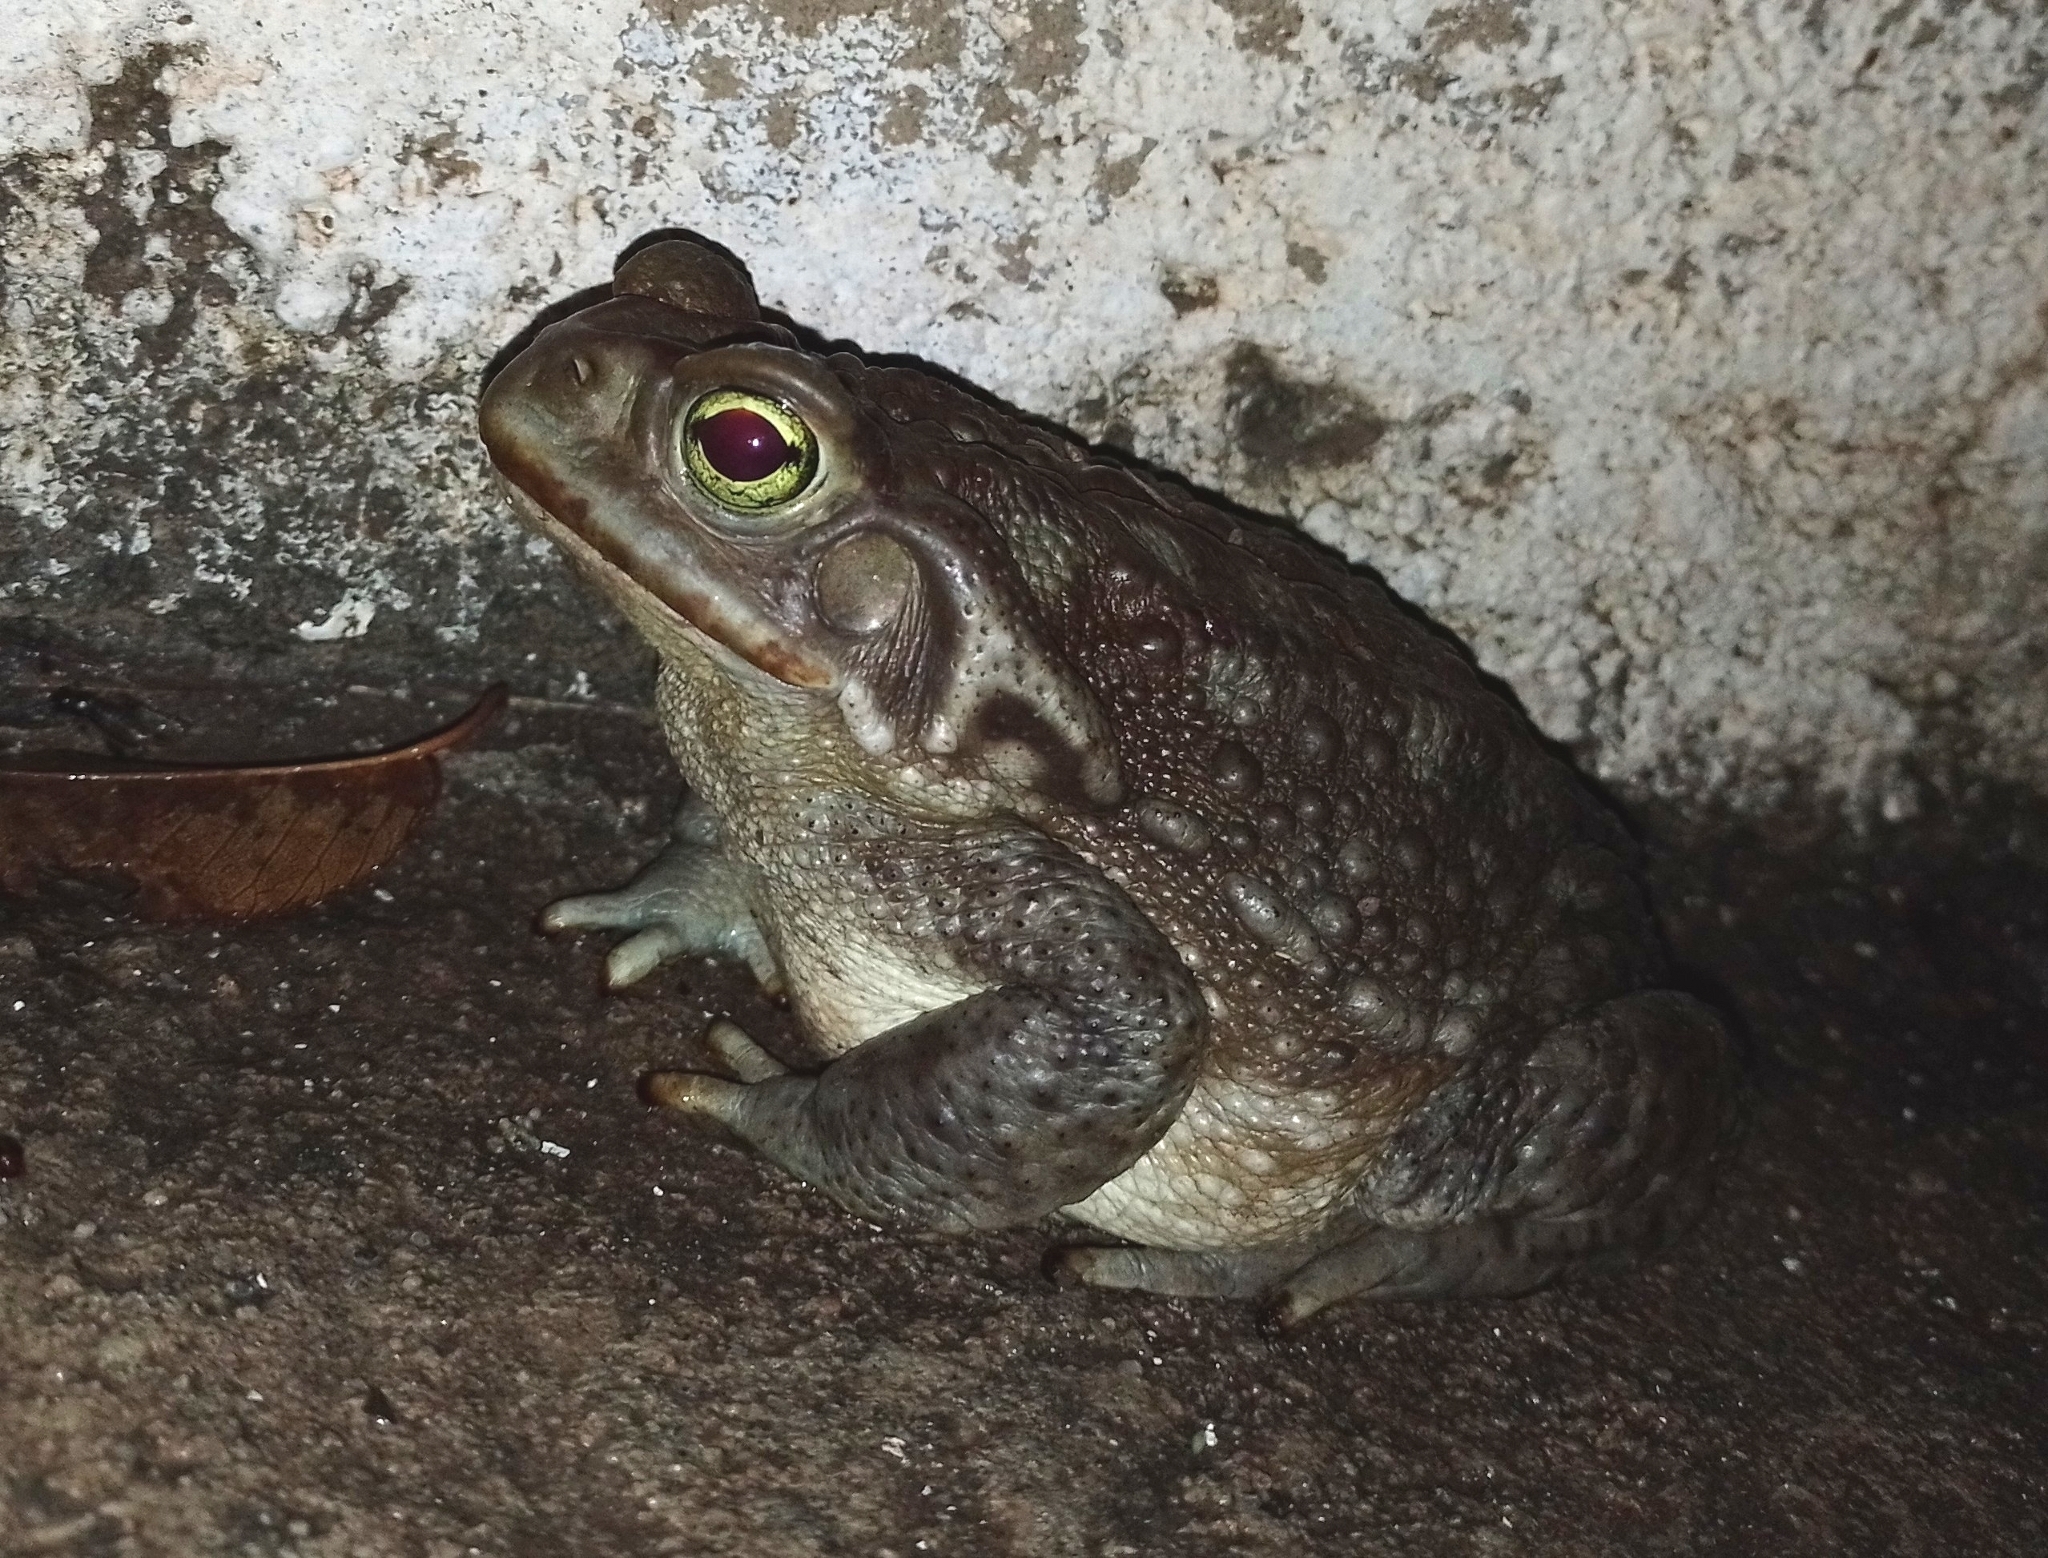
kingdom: Animalia
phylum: Chordata
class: Amphibia
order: Anura
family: Bufonidae
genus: Rhinella
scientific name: Rhinella arenarum
